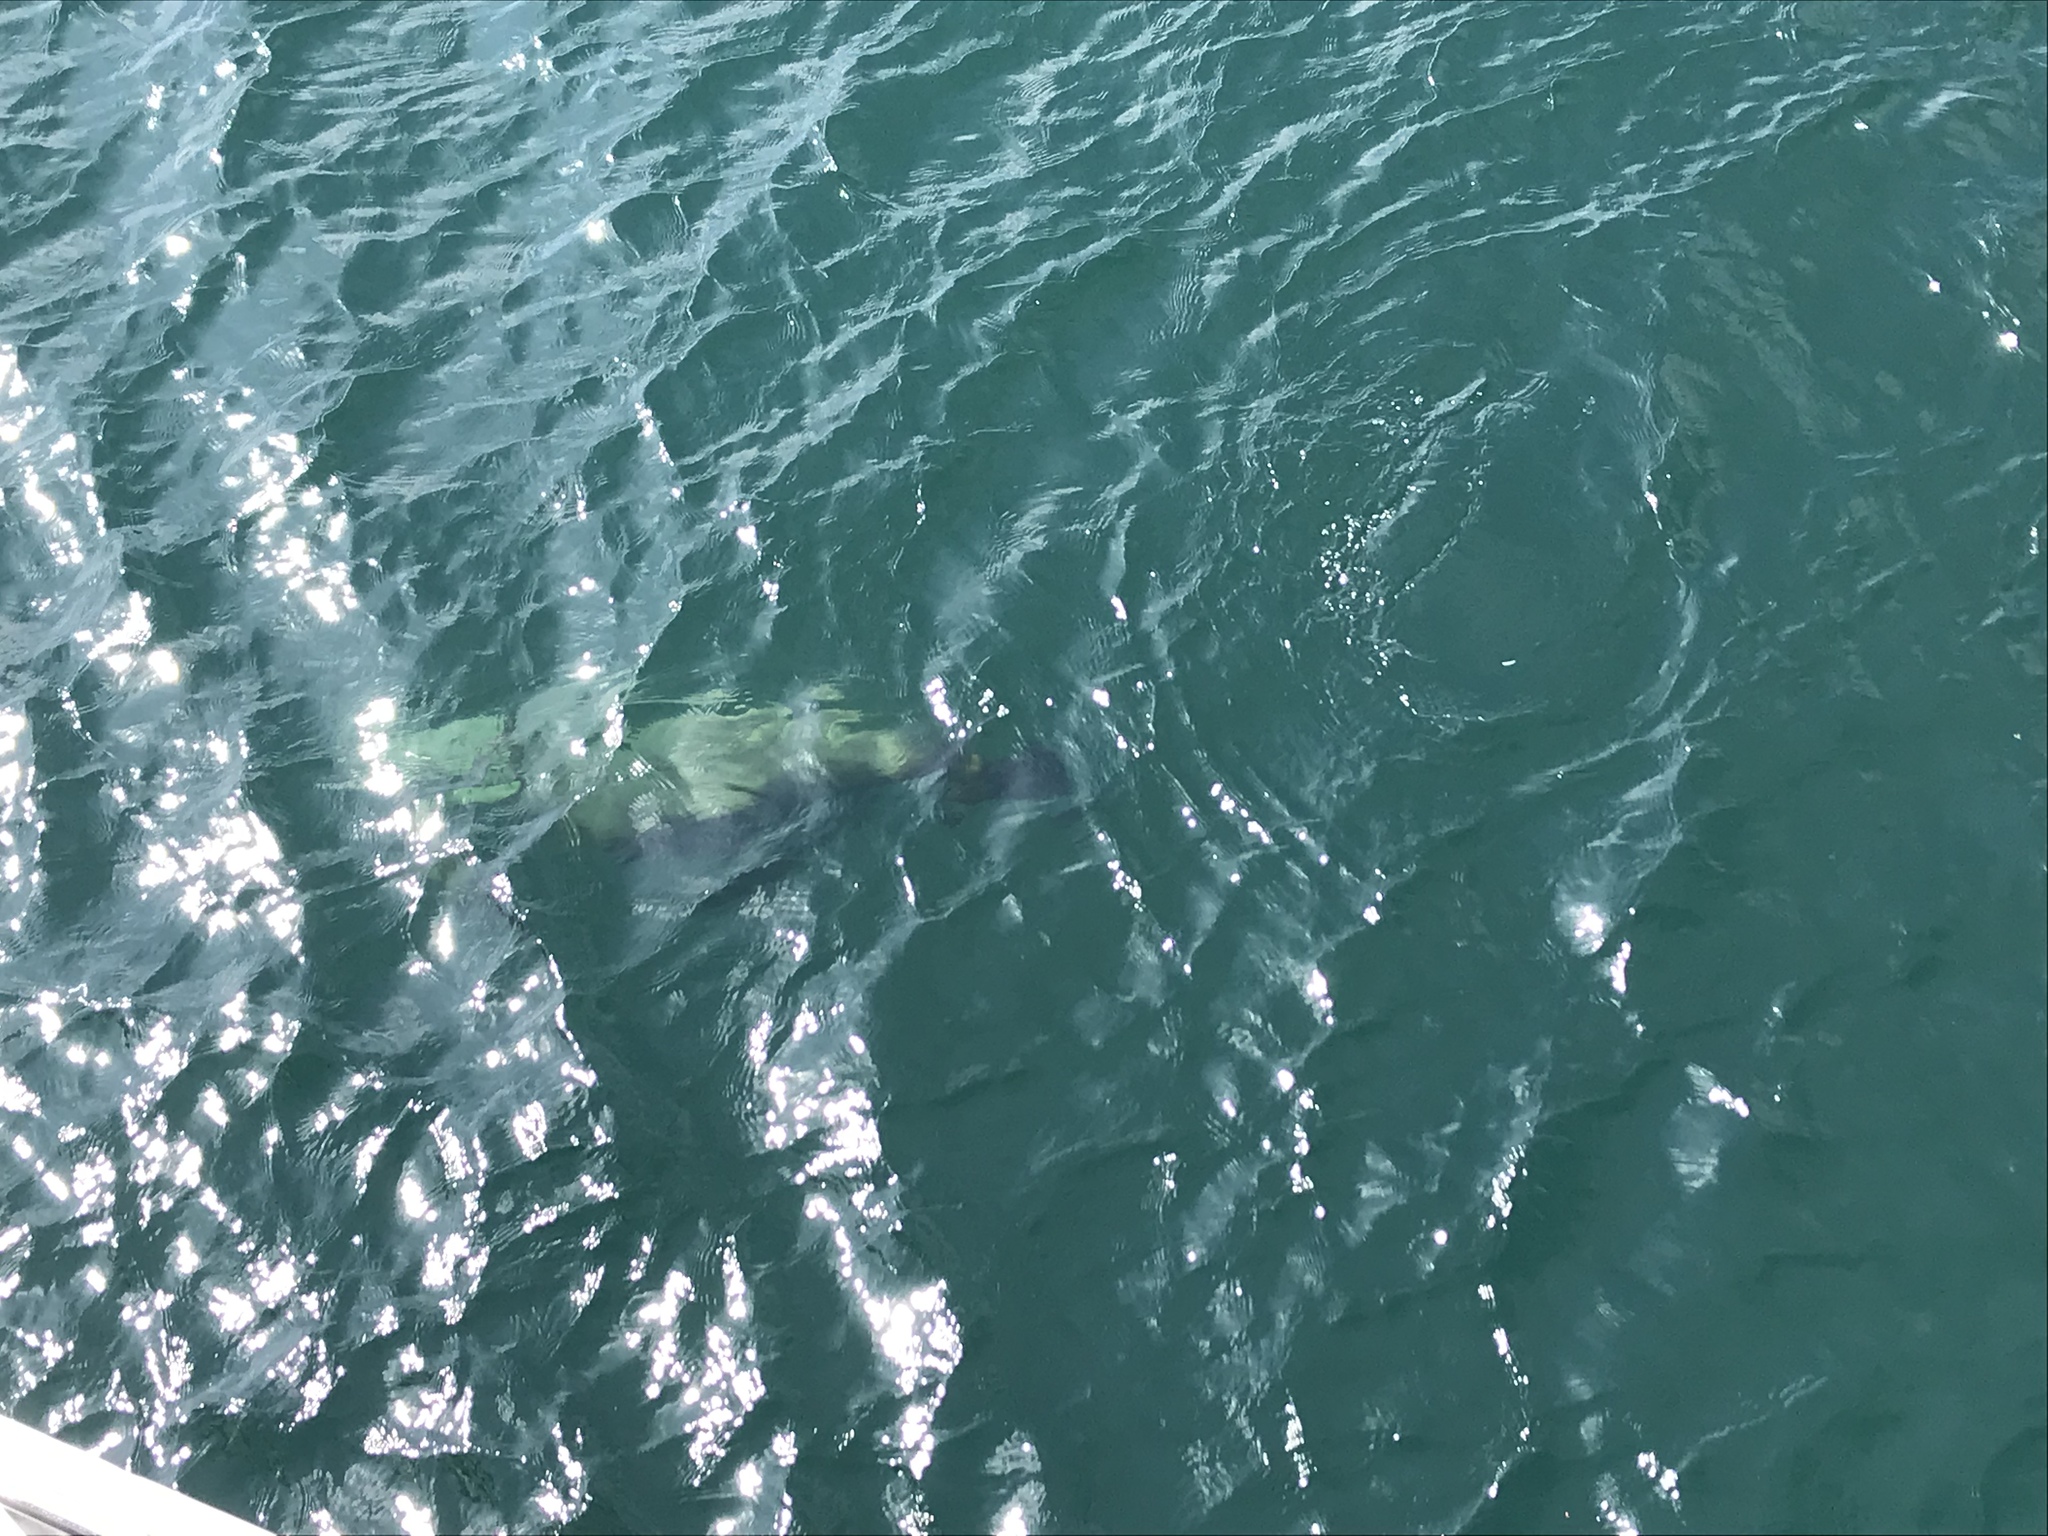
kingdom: Animalia
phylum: Chordata
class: Mammalia
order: Carnivora
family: Otariidae
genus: Zalophus
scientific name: Zalophus californianus
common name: California sea lion
